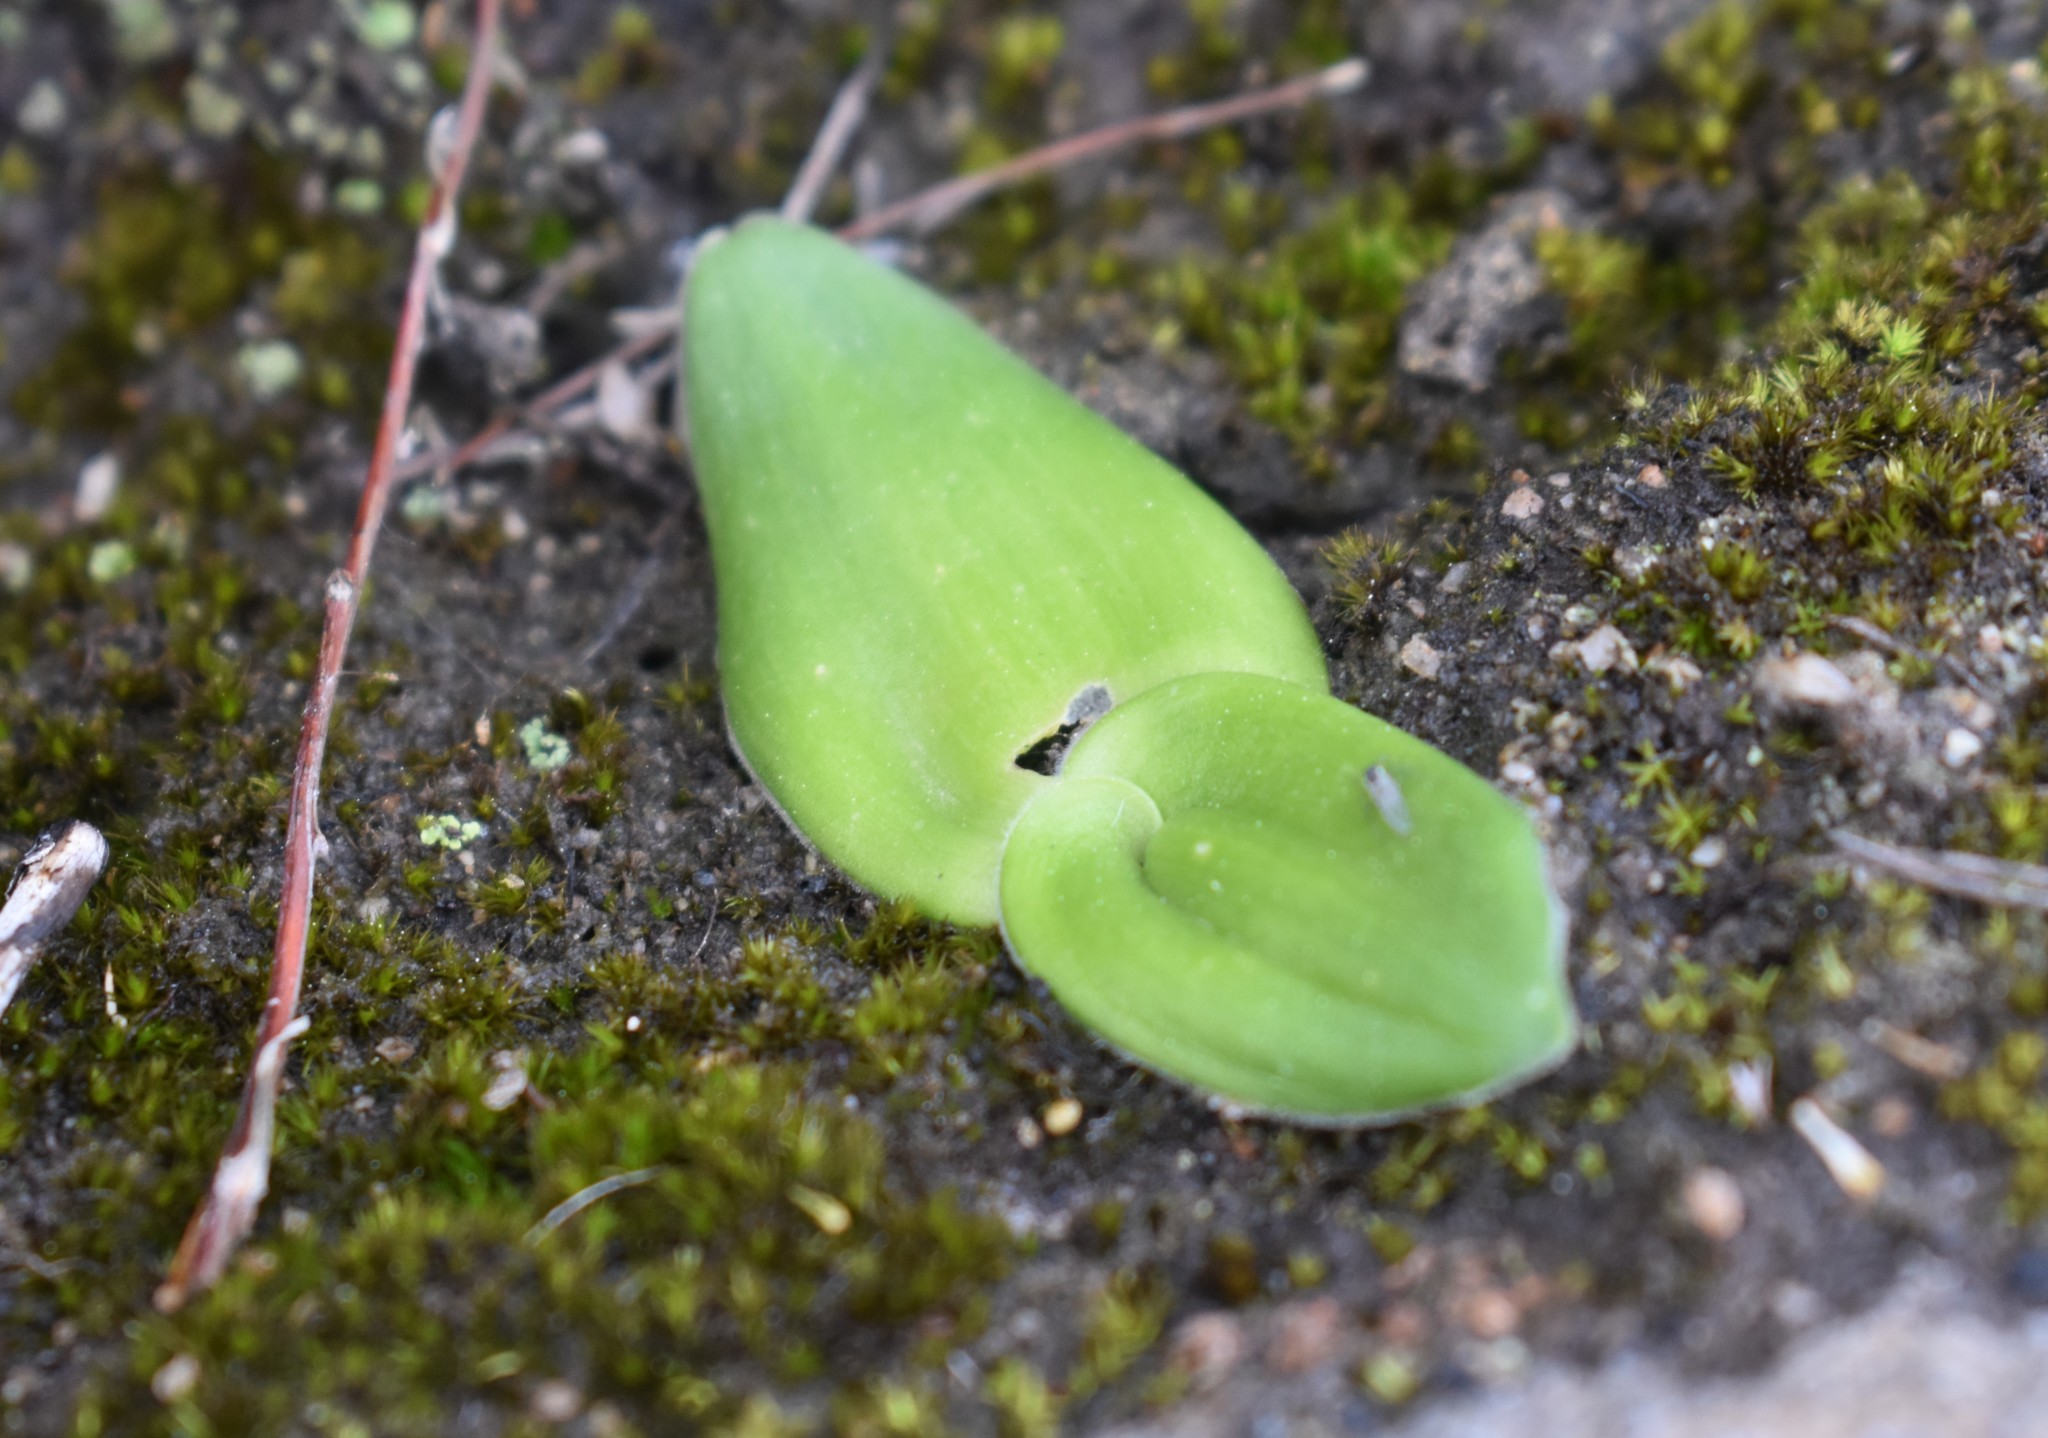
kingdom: Plantae
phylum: Tracheophyta
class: Liliopsida
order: Asparagales
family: Orchidaceae
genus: Satyrium
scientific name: Satyrium rupestre
